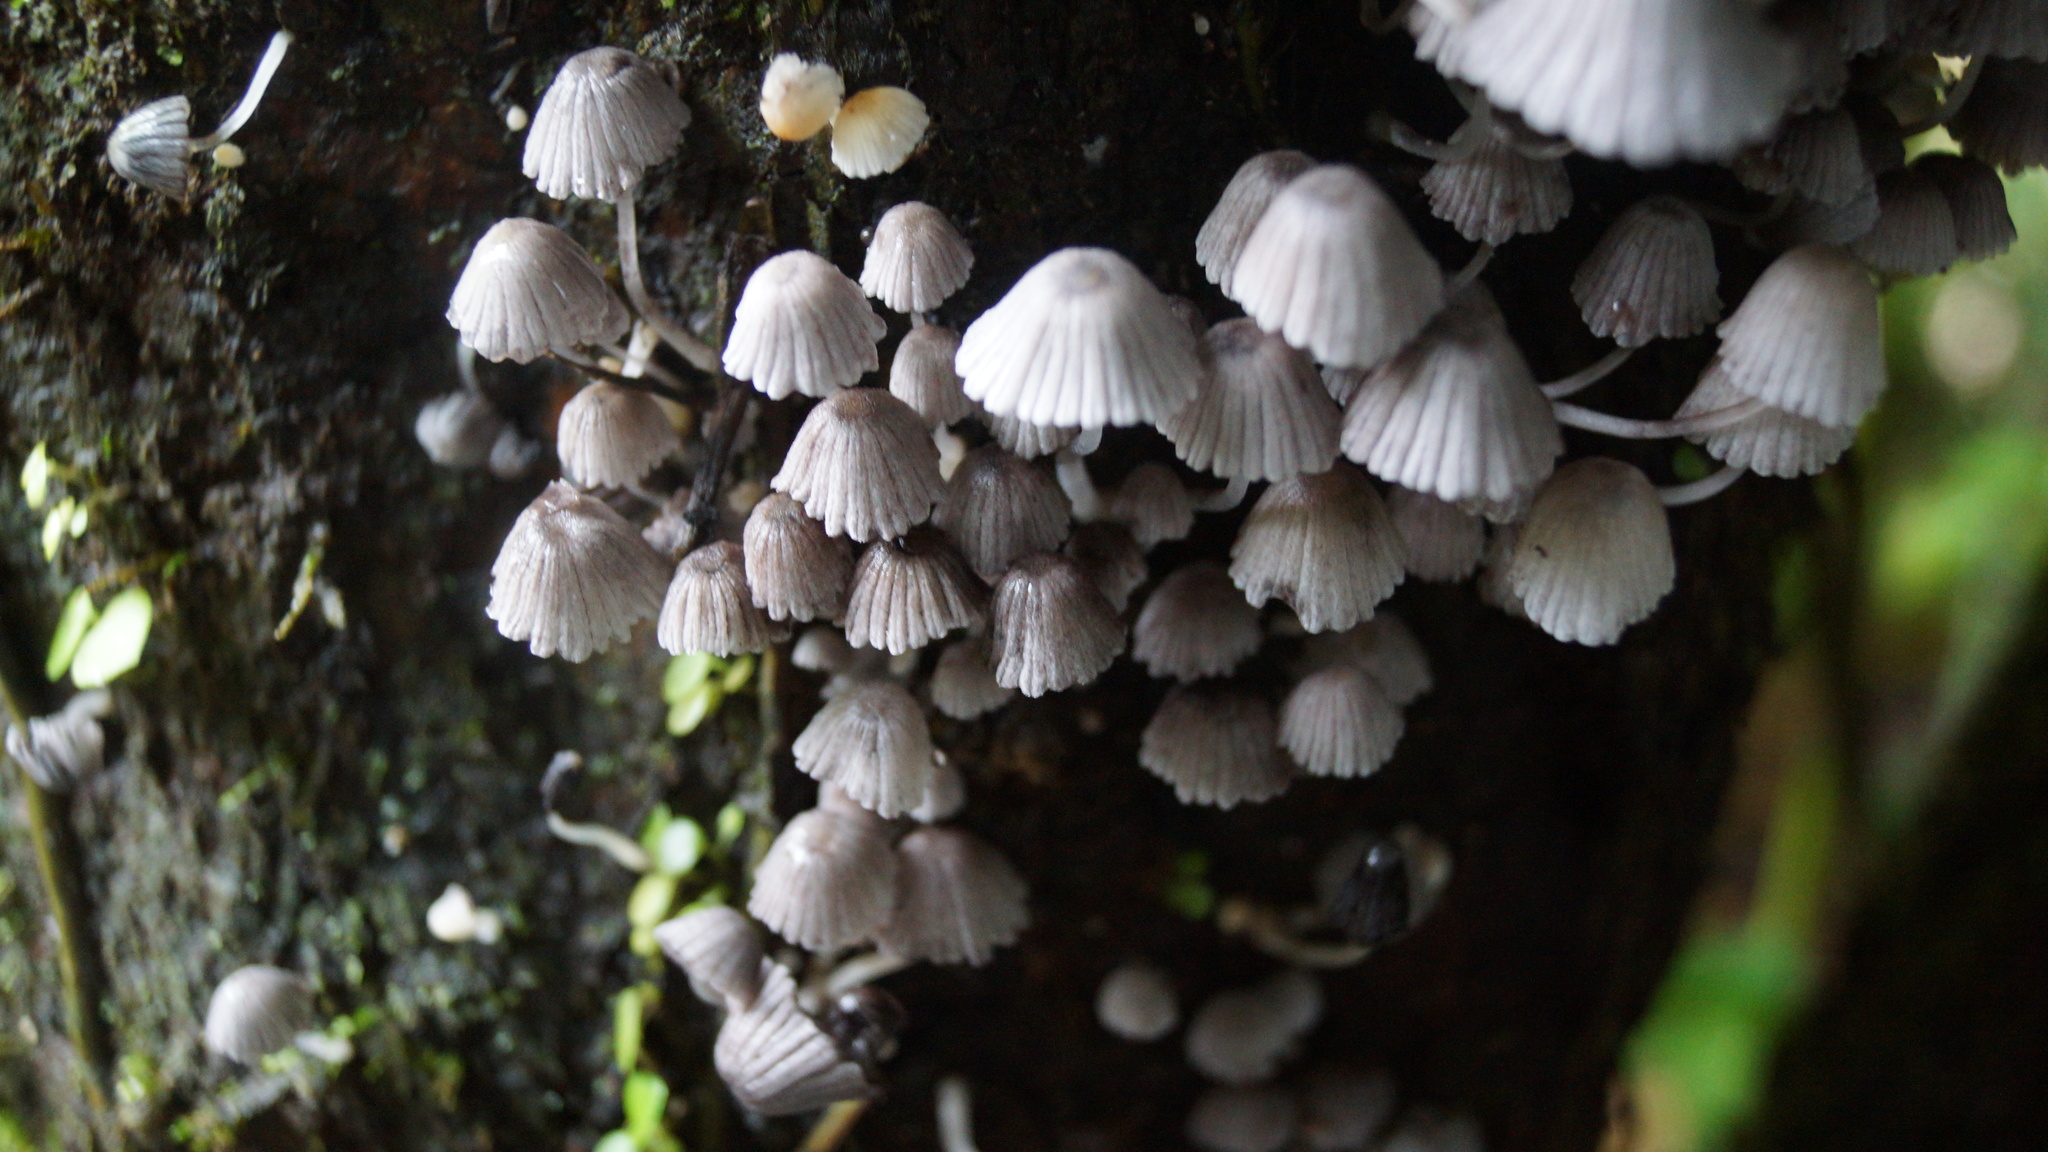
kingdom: Fungi
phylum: Basidiomycota
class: Agaricomycetes
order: Agaricales
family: Psathyrellaceae
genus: Coprinellus
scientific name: Coprinellus disseminatus
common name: Fairies' bonnets
